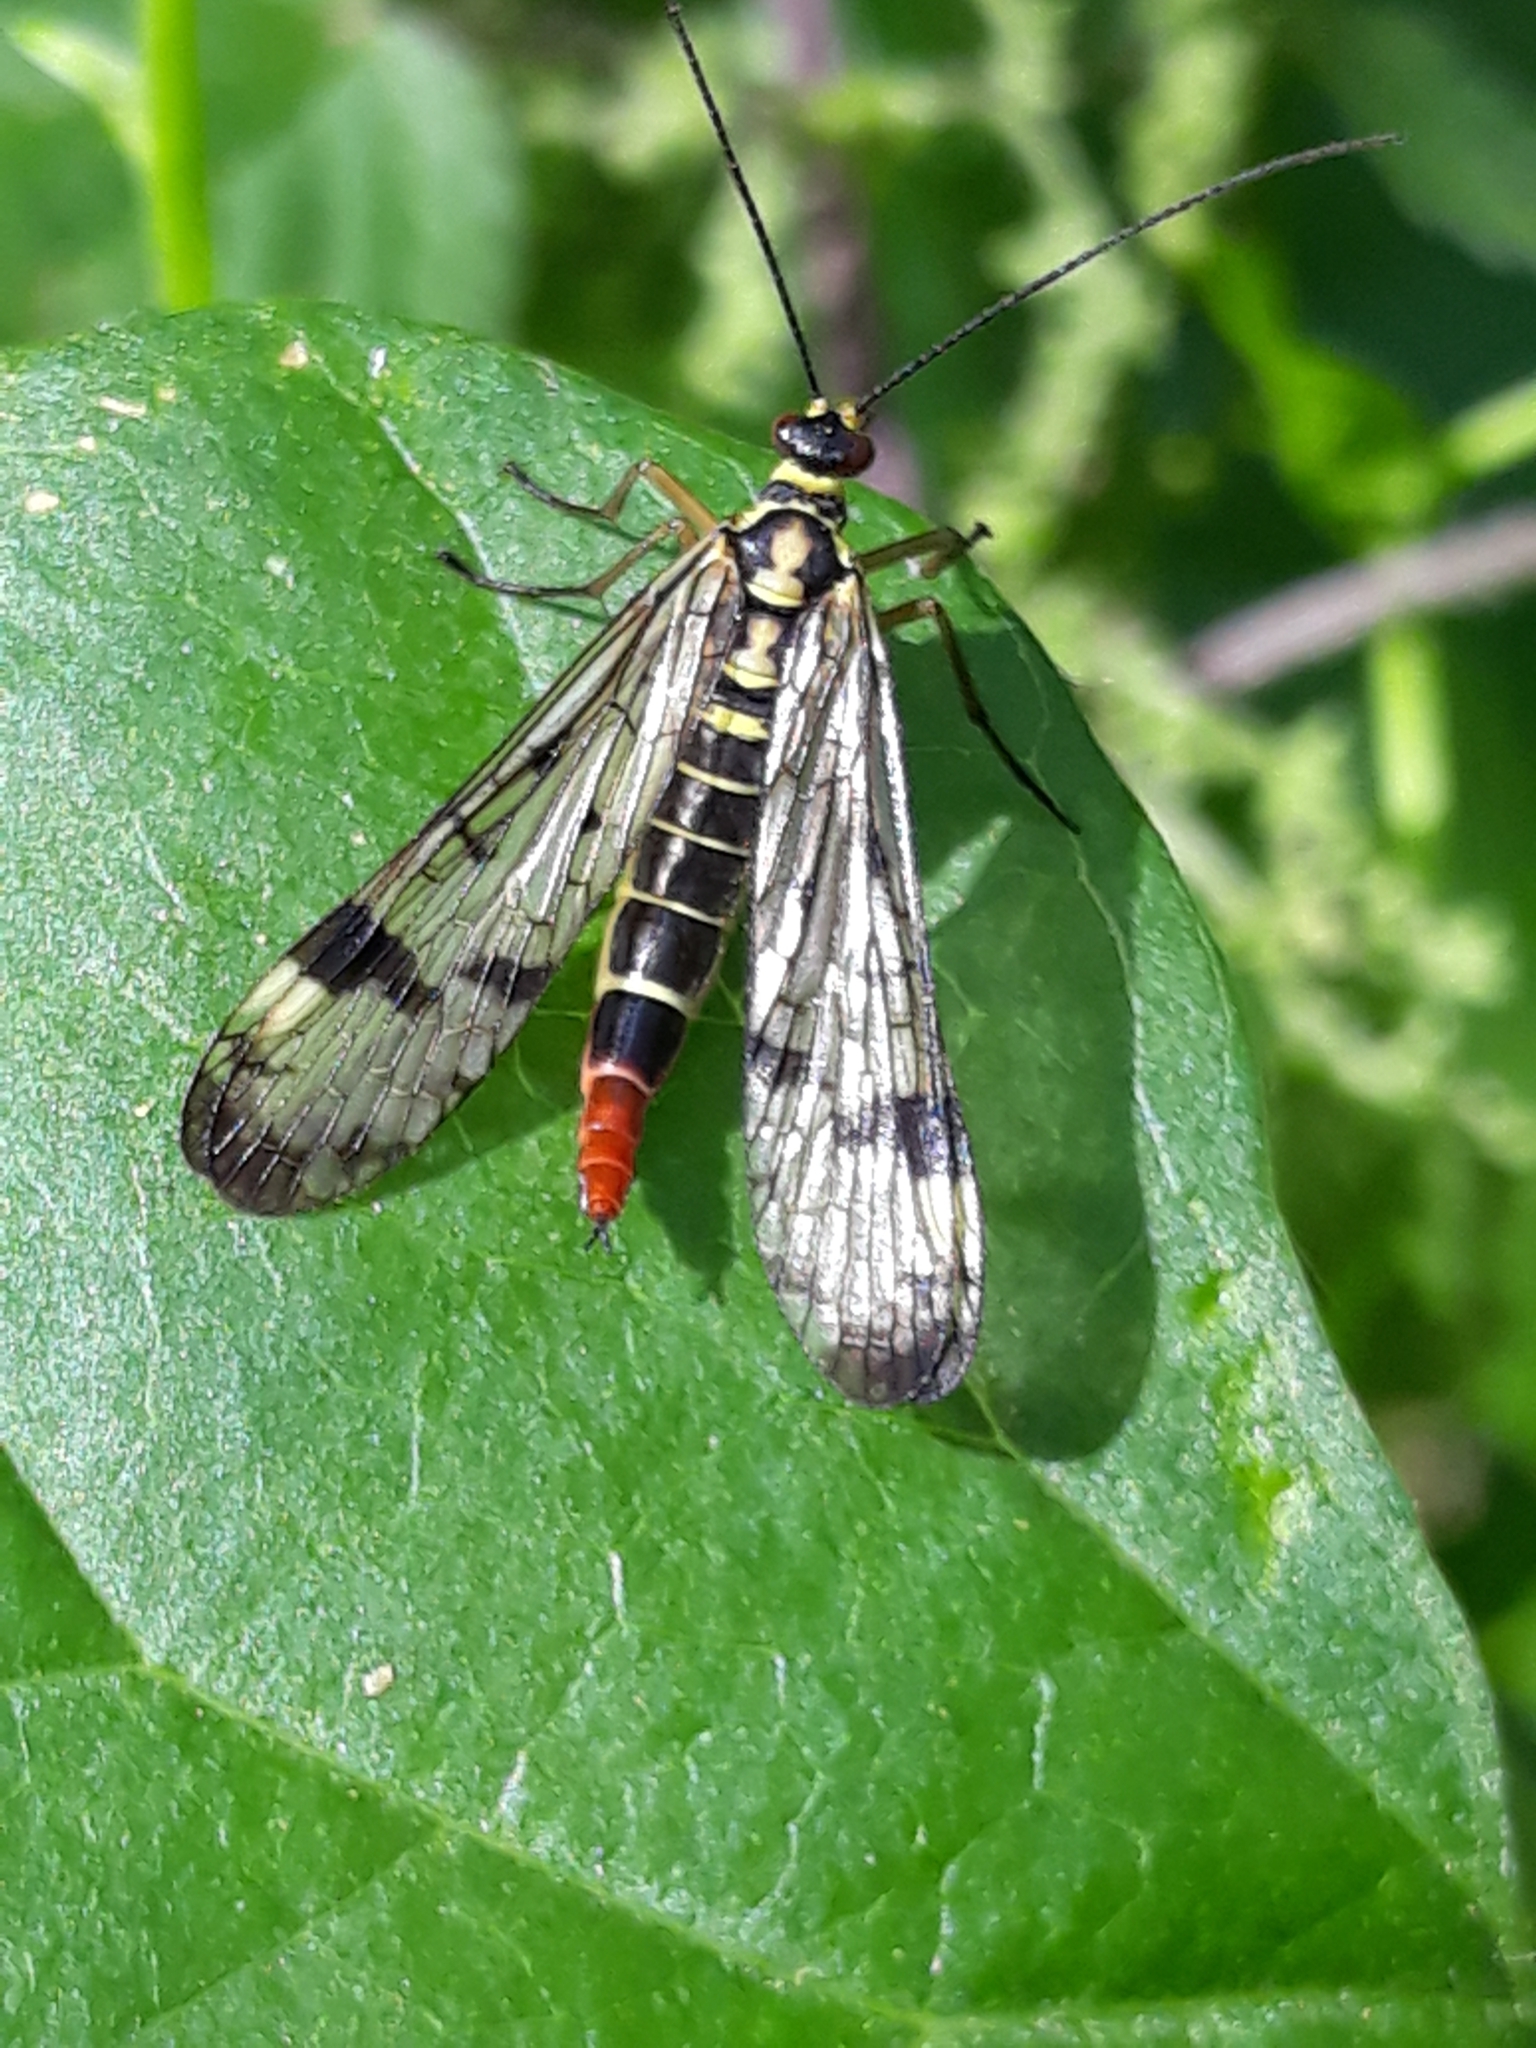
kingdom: Animalia
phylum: Arthropoda
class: Insecta
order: Mecoptera
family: Panorpidae
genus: Panorpa
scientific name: Panorpa communis
